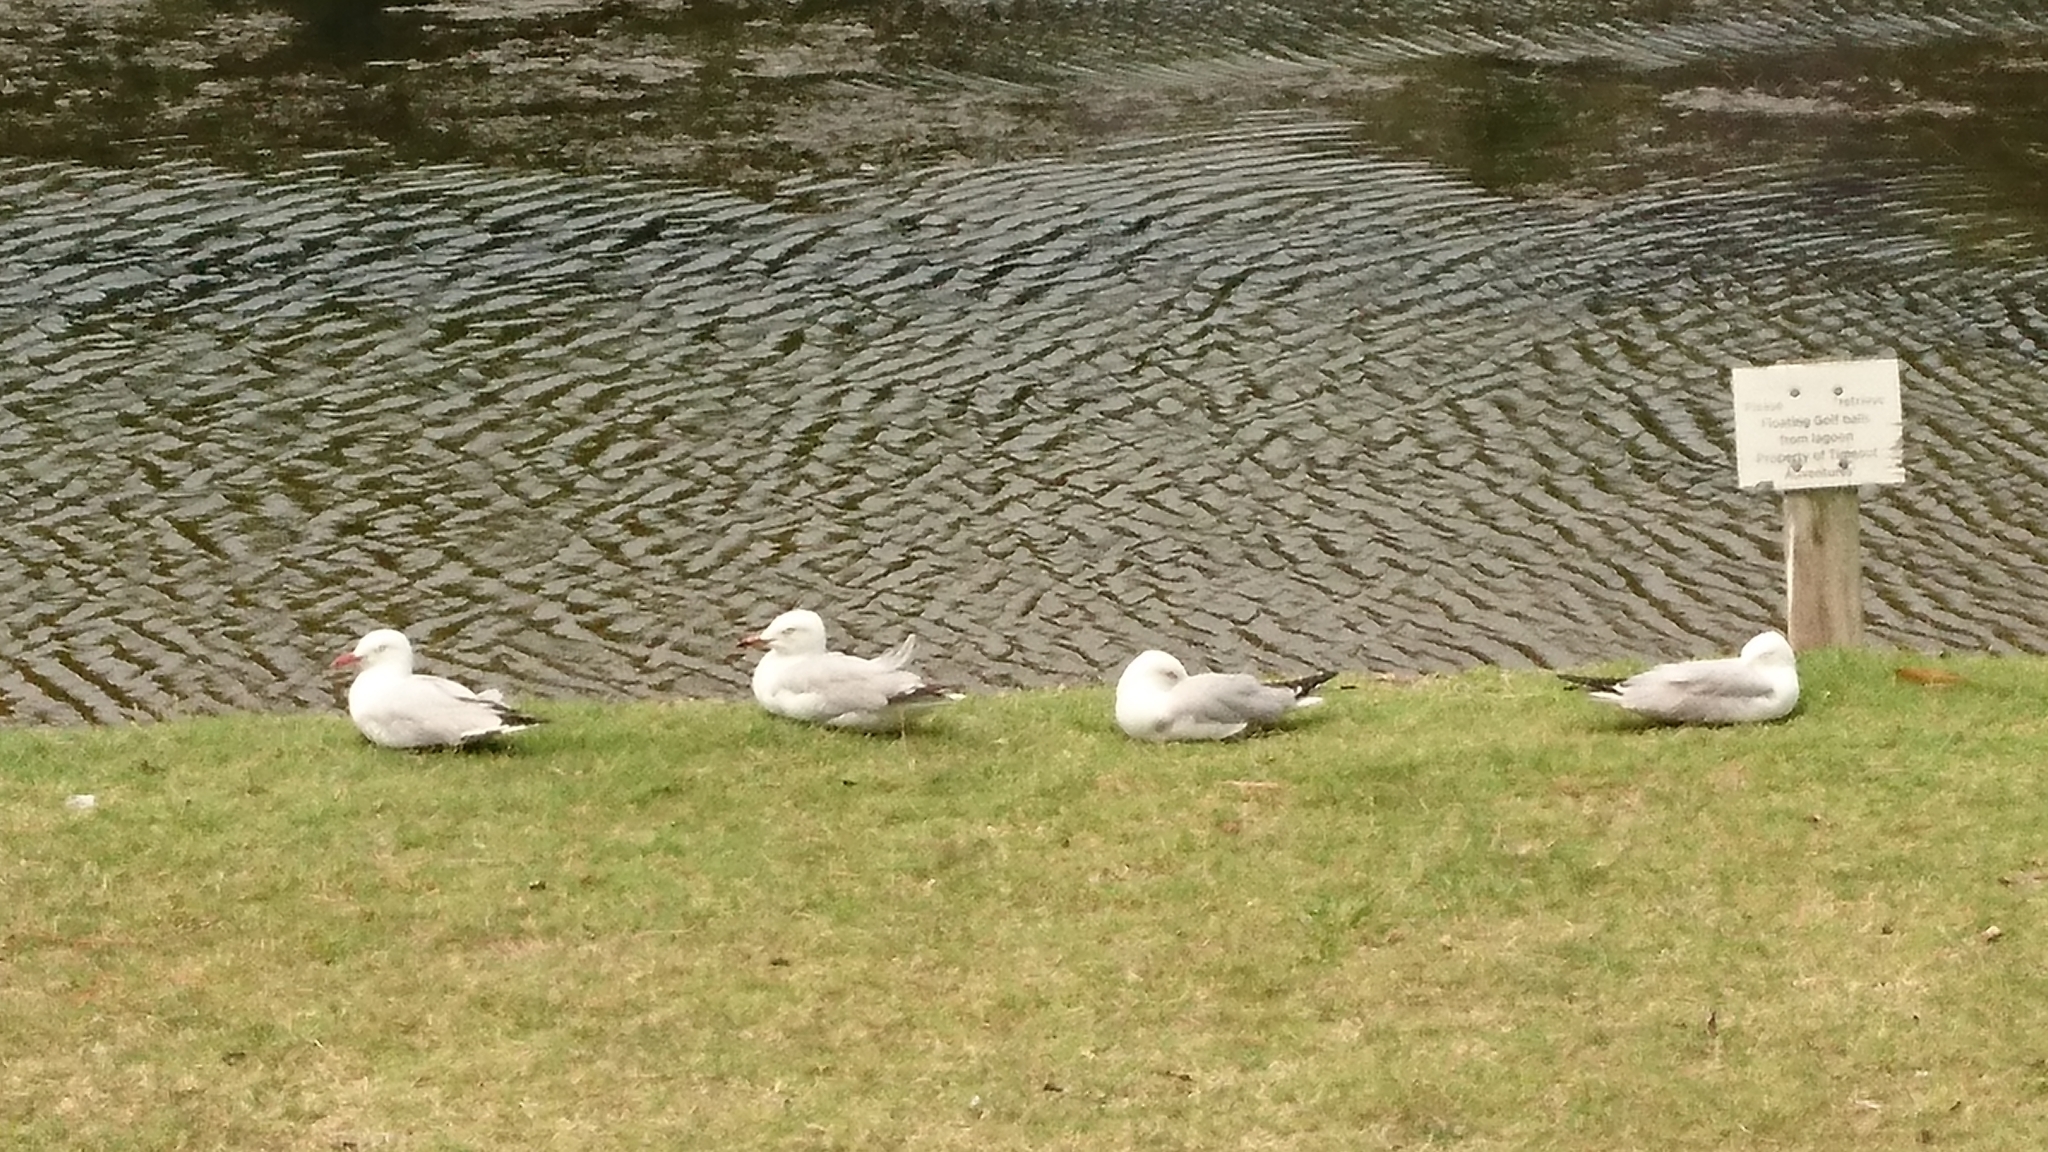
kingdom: Animalia
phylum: Chordata
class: Aves
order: Charadriiformes
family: Laridae
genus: Chroicocephalus
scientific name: Chroicocephalus novaehollandiae
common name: Silver gull
